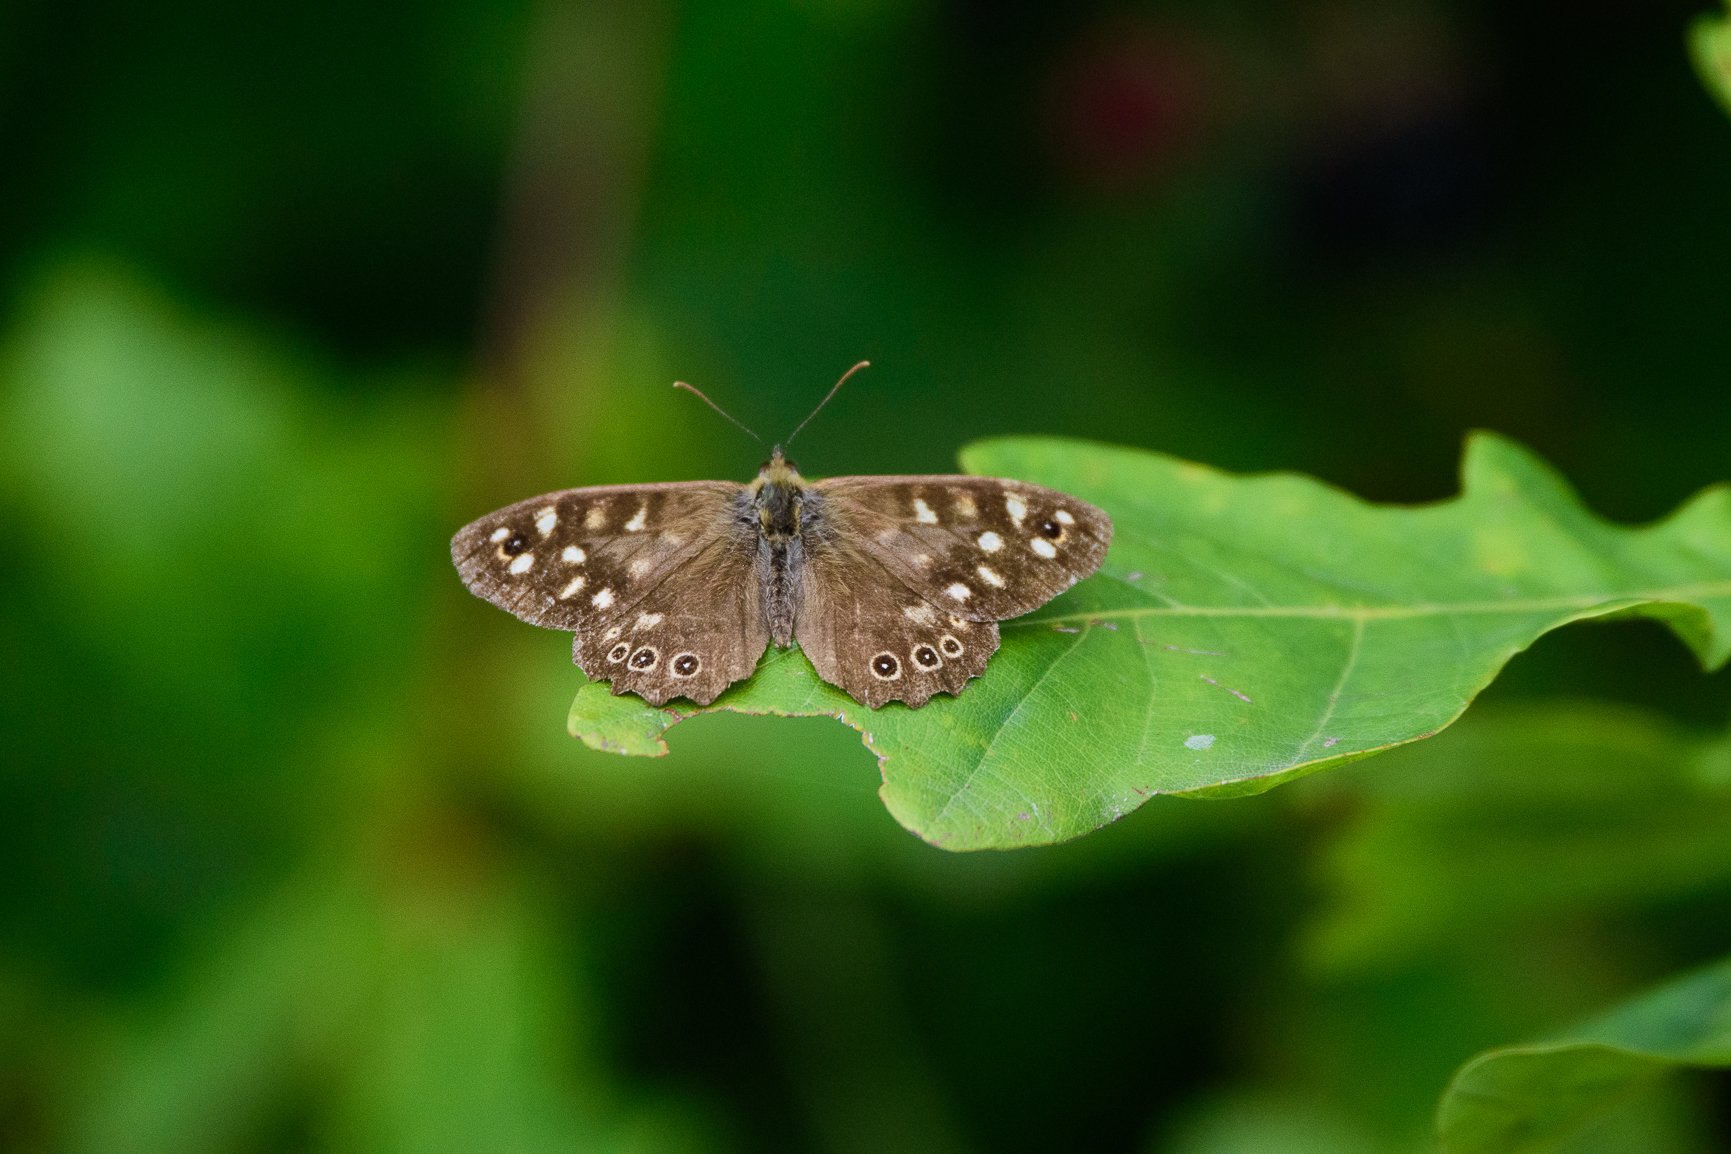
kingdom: Animalia
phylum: Arthropoda
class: Insecta
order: Lepidoptera
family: Nymphalidae
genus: Pararge
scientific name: Pararge aegeria
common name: Speckled wood
